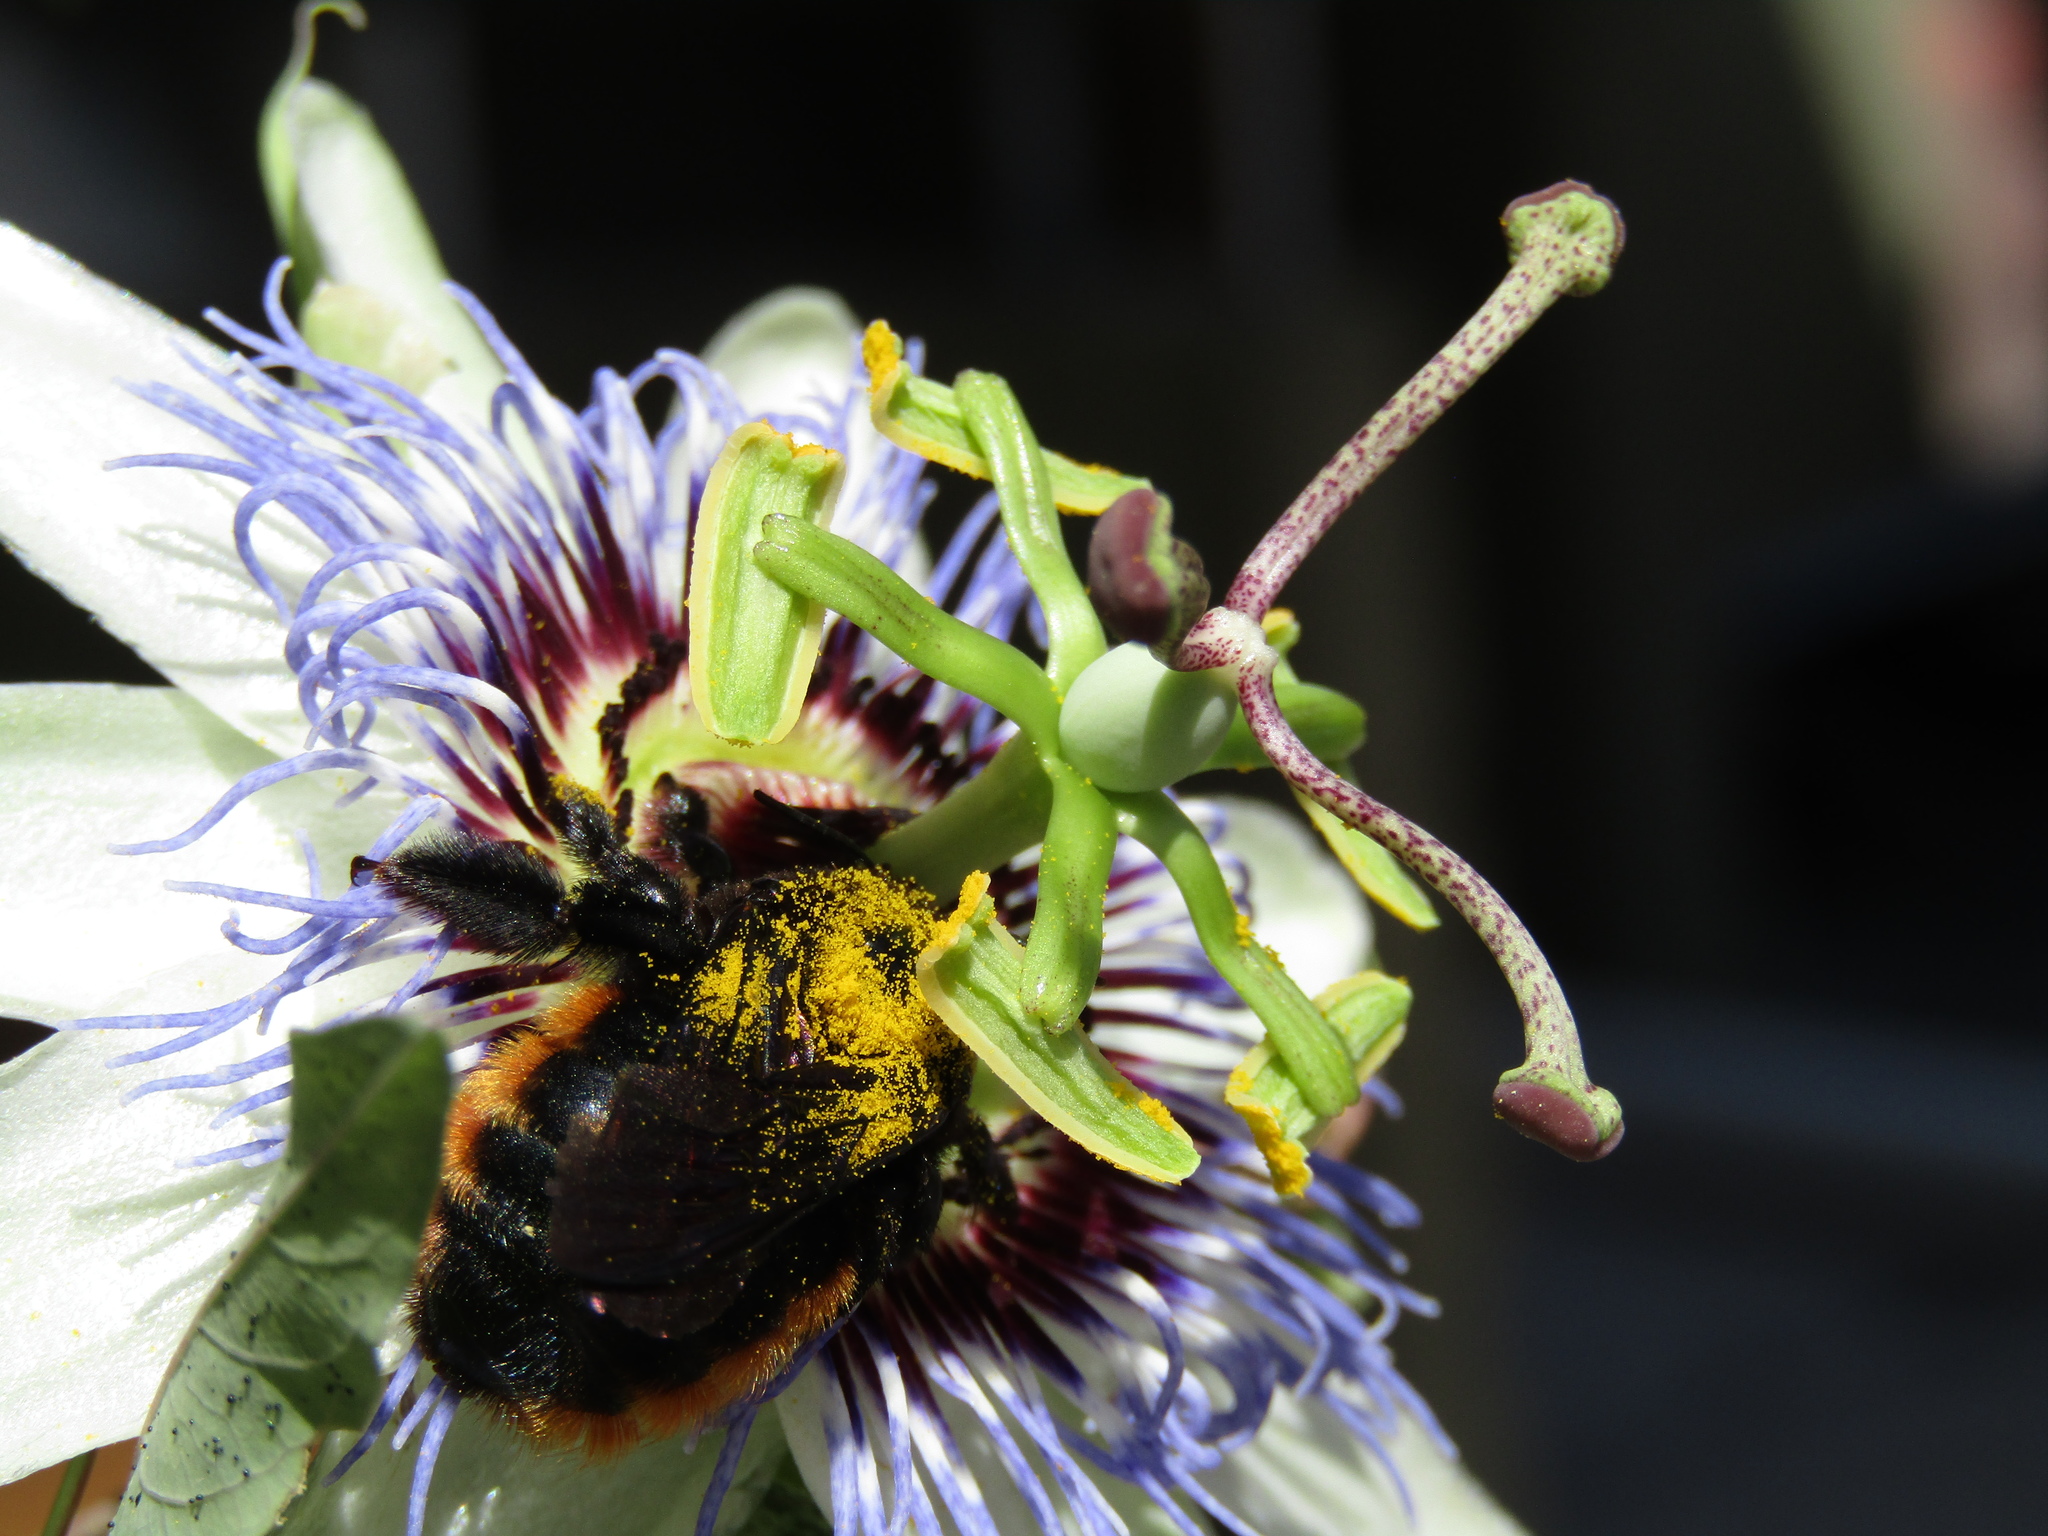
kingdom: Animalia
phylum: Arthropoda
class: Insecta
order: Hymenoptera
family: Apidae
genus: Xylocopa
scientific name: Xylocopa augusti
